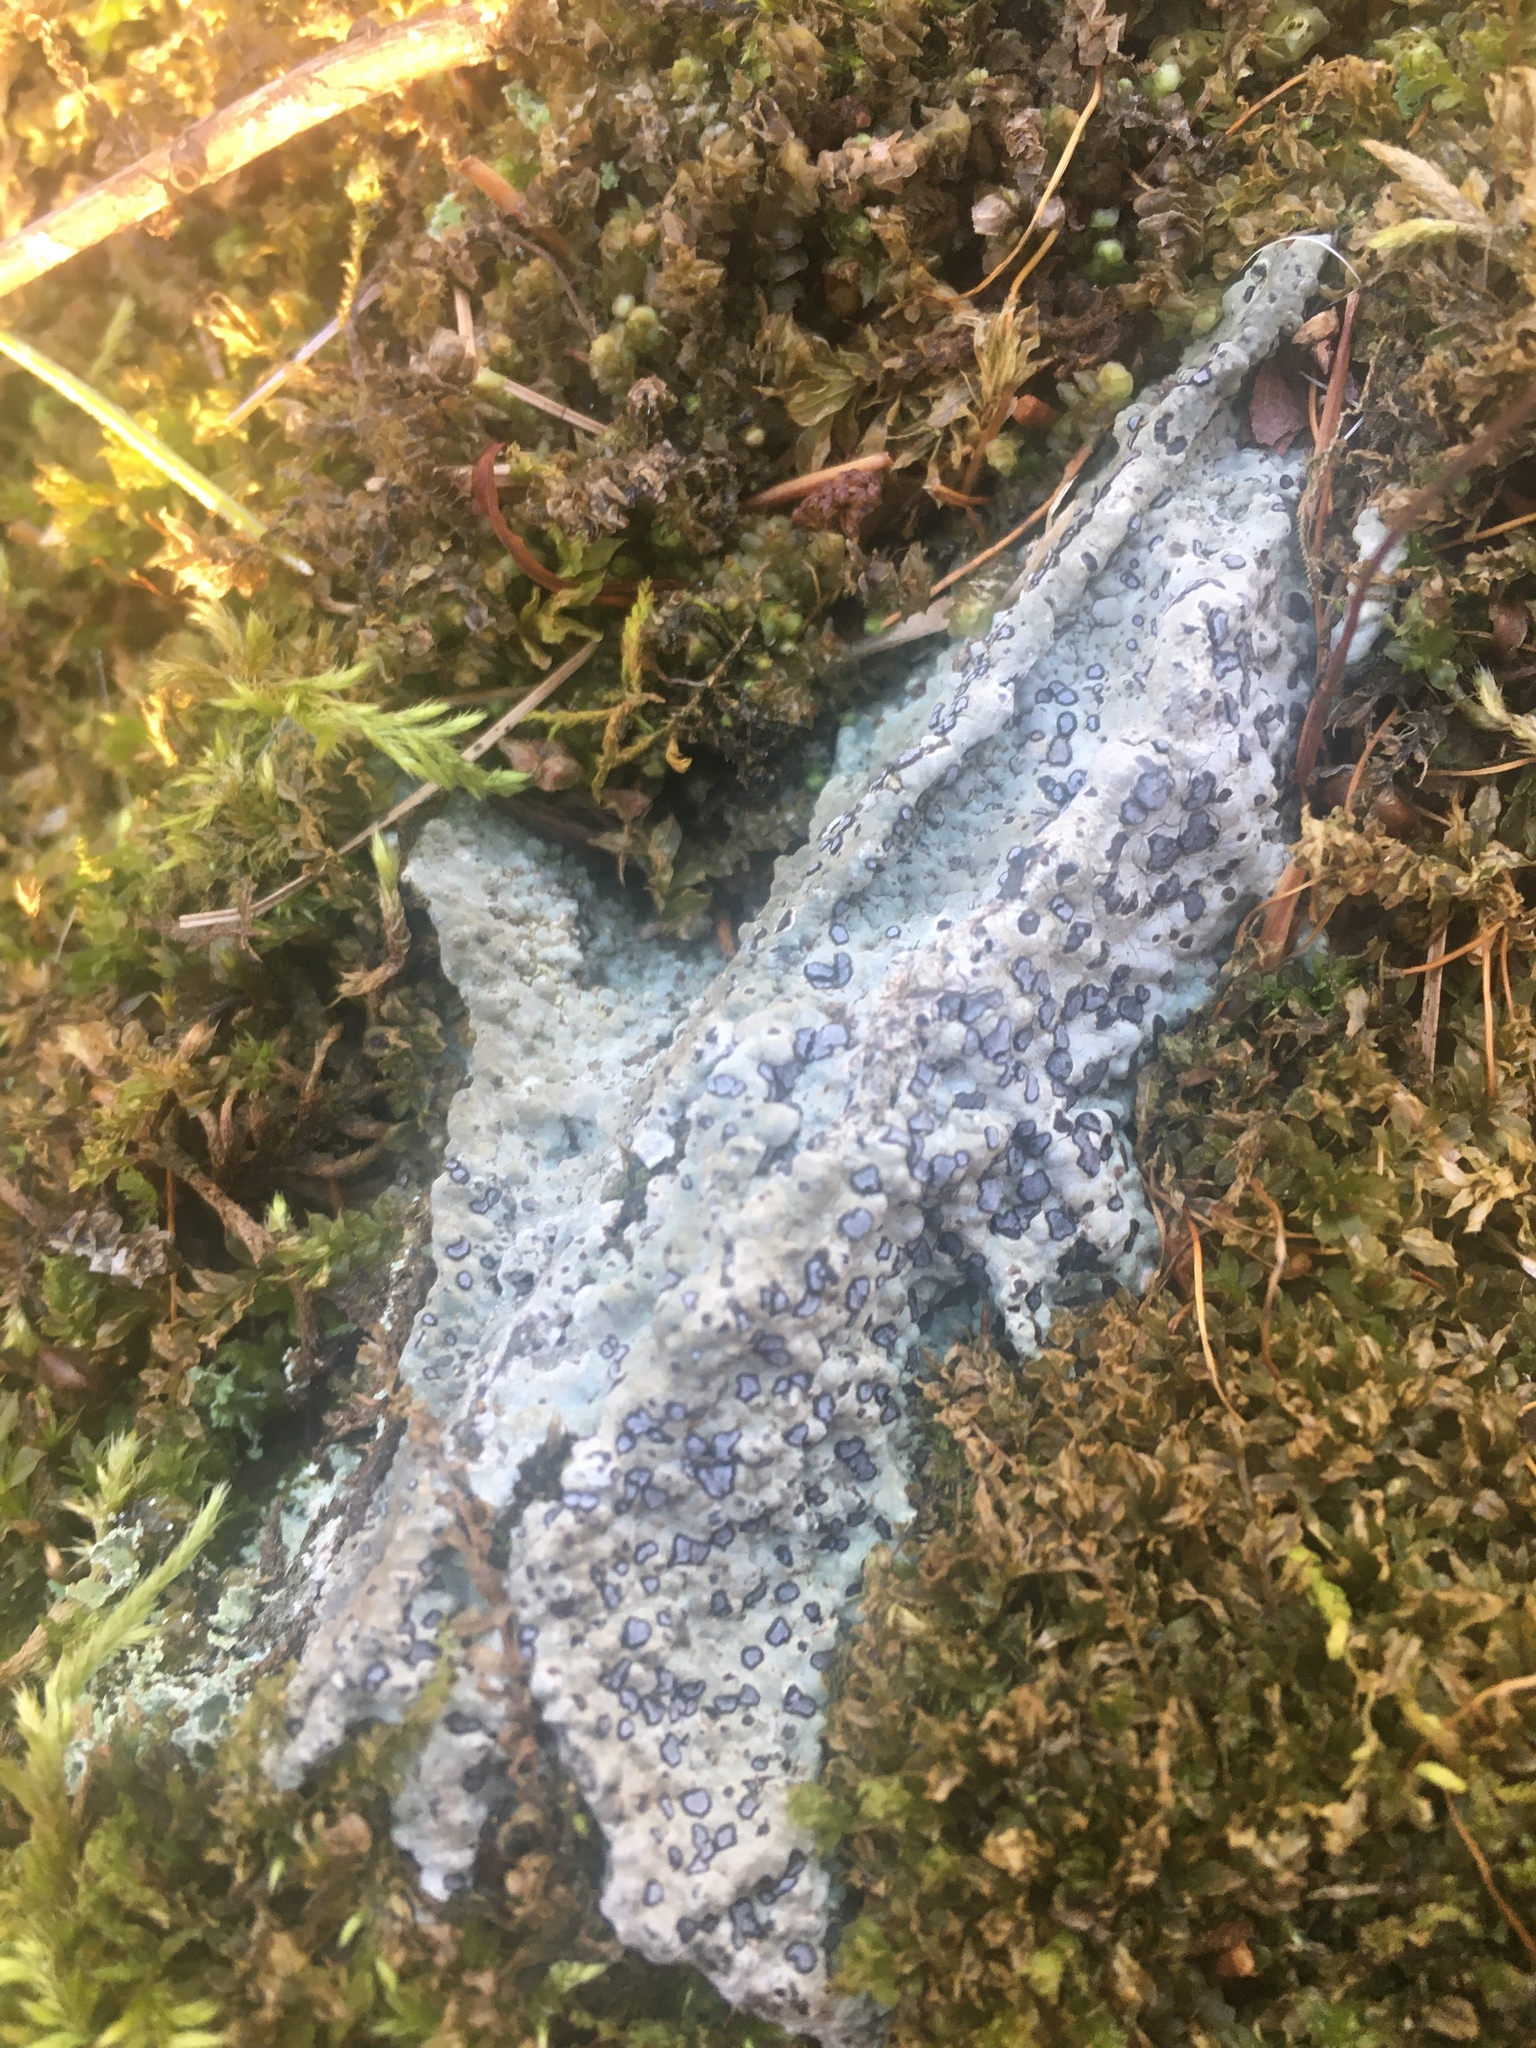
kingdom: Fungi
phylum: Ascomycota
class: Lecanoromycetes
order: Lecideales
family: Lecideaceae
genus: Porpidia
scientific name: Porpidia albocaerulescens
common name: Smokey-eyed boulder lichen
